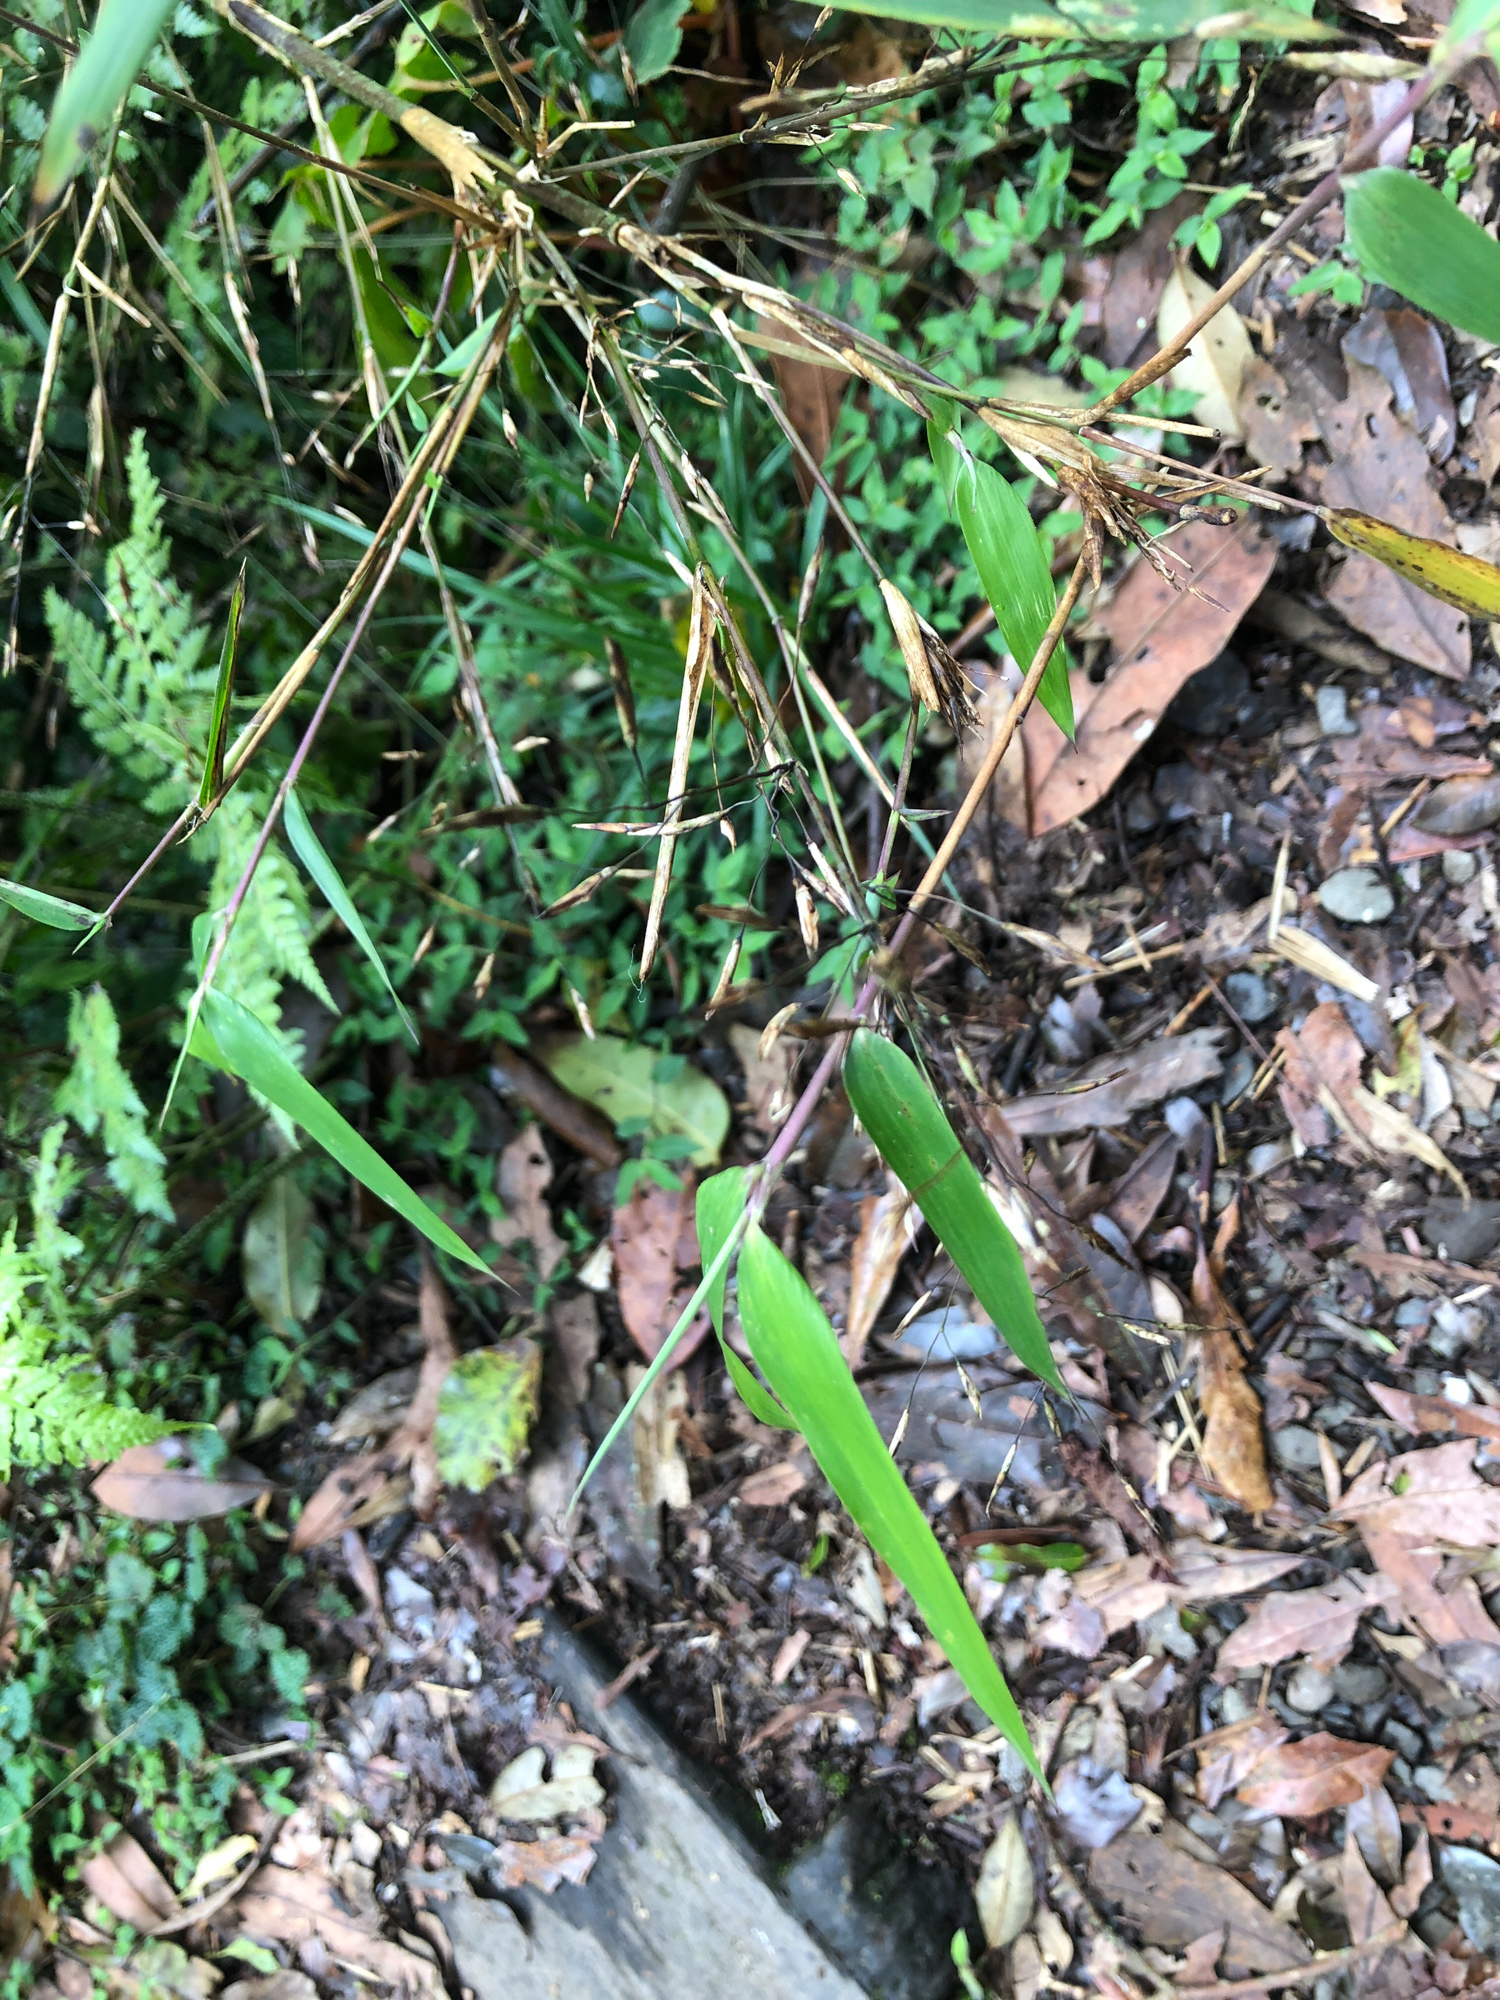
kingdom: Plantae
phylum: Tracheophyta
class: Liliopsida
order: Poales
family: Poaceae
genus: Yushania
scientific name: Yushania niitakayamensis
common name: Yushan cane
